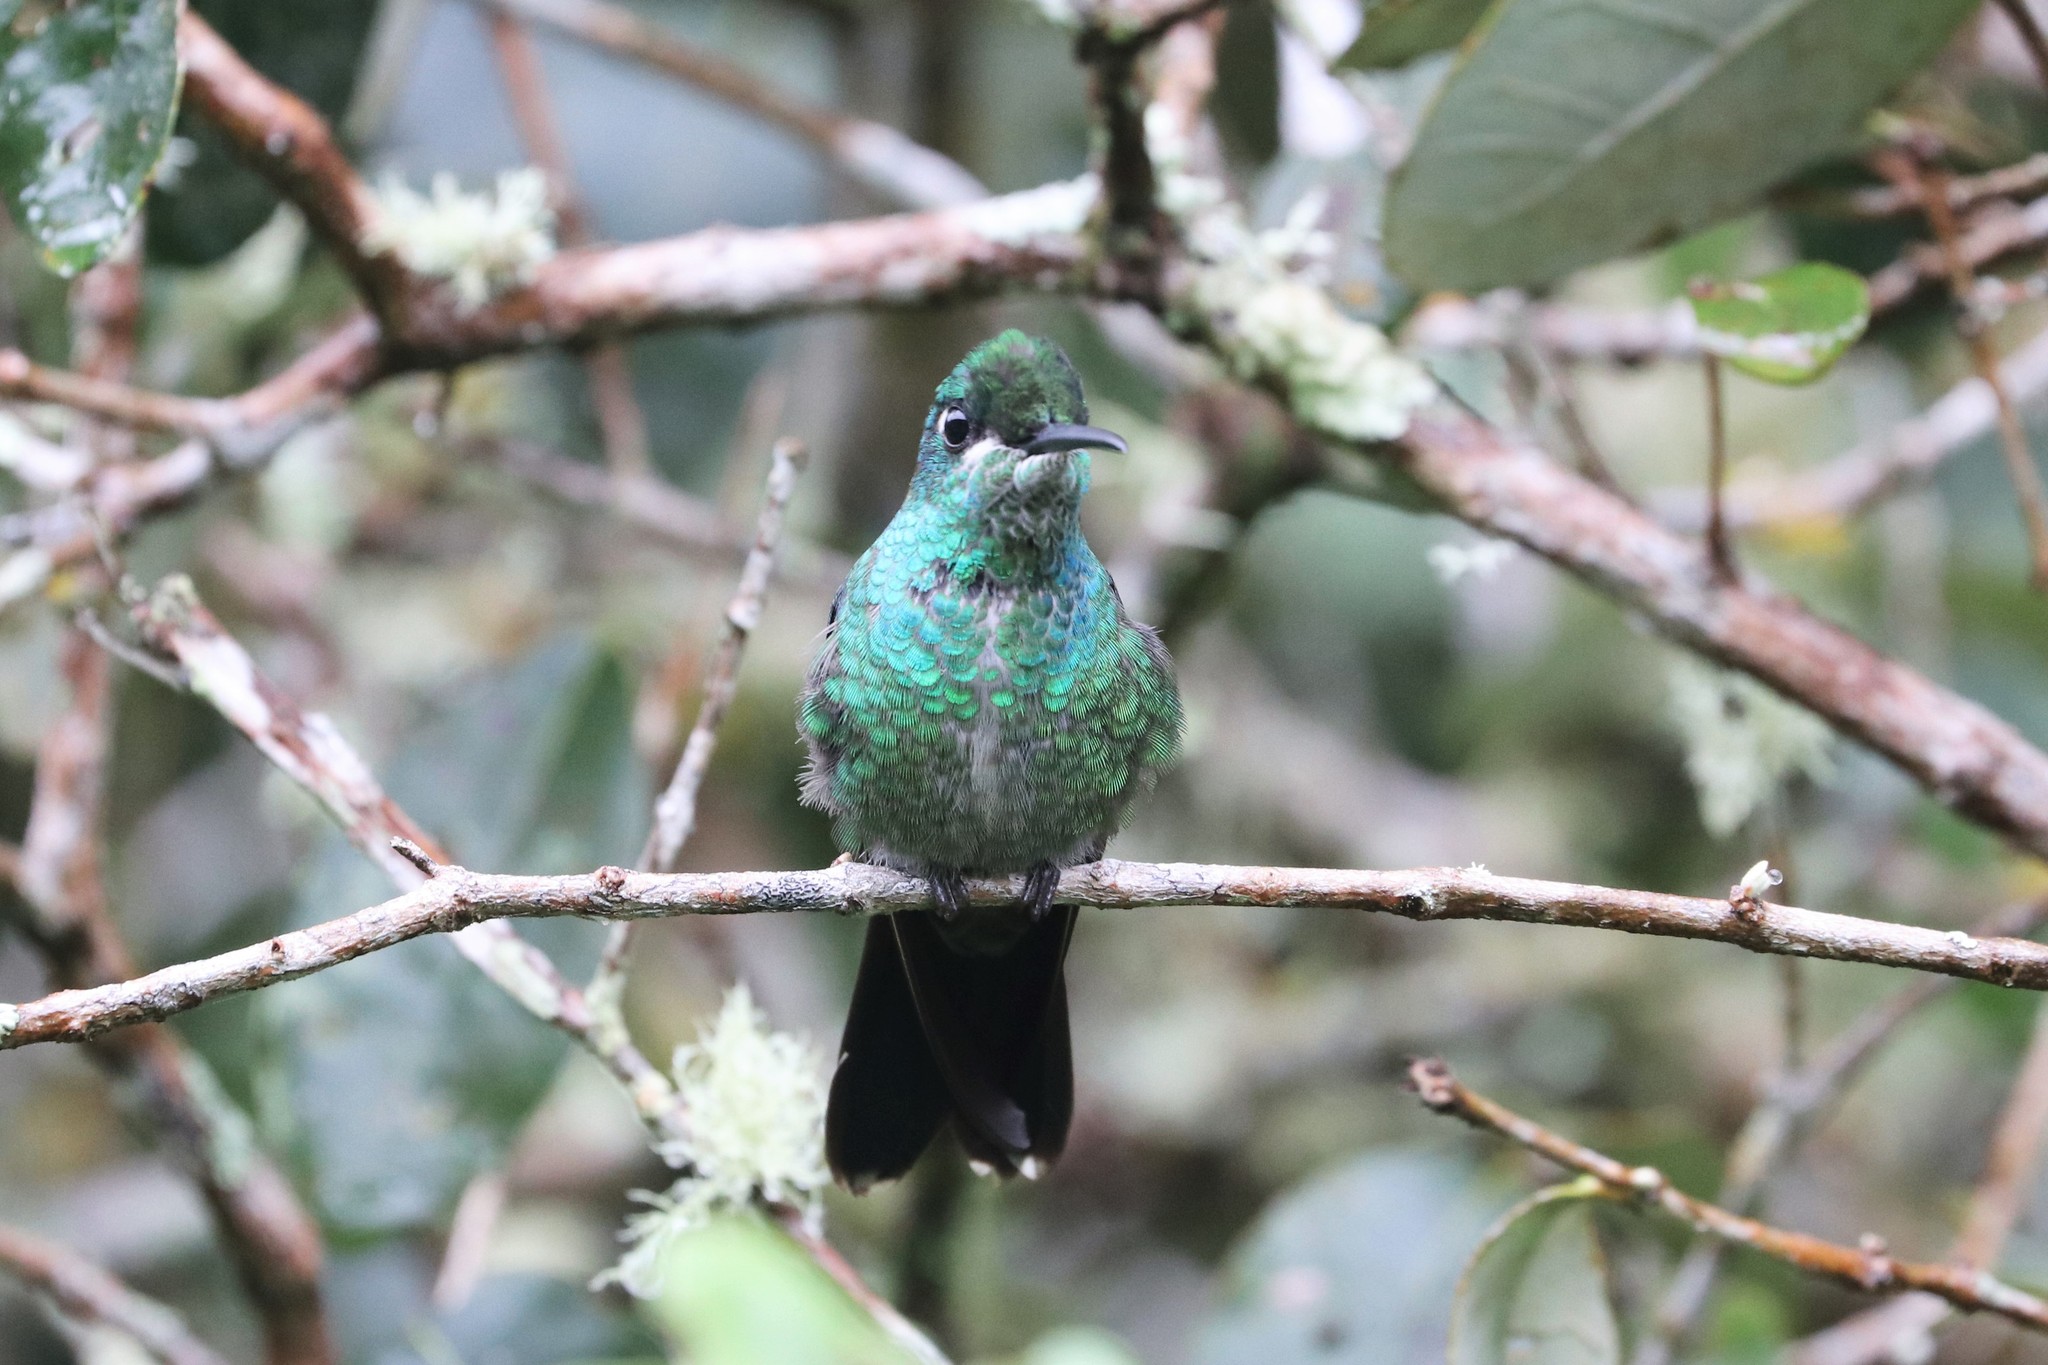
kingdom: Animalia
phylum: Chordata
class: Aves
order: Apodiformes
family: Trochilidae
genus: Heliodoxa
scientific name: Heliodoxa jacula
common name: Green-crowned brilliant
